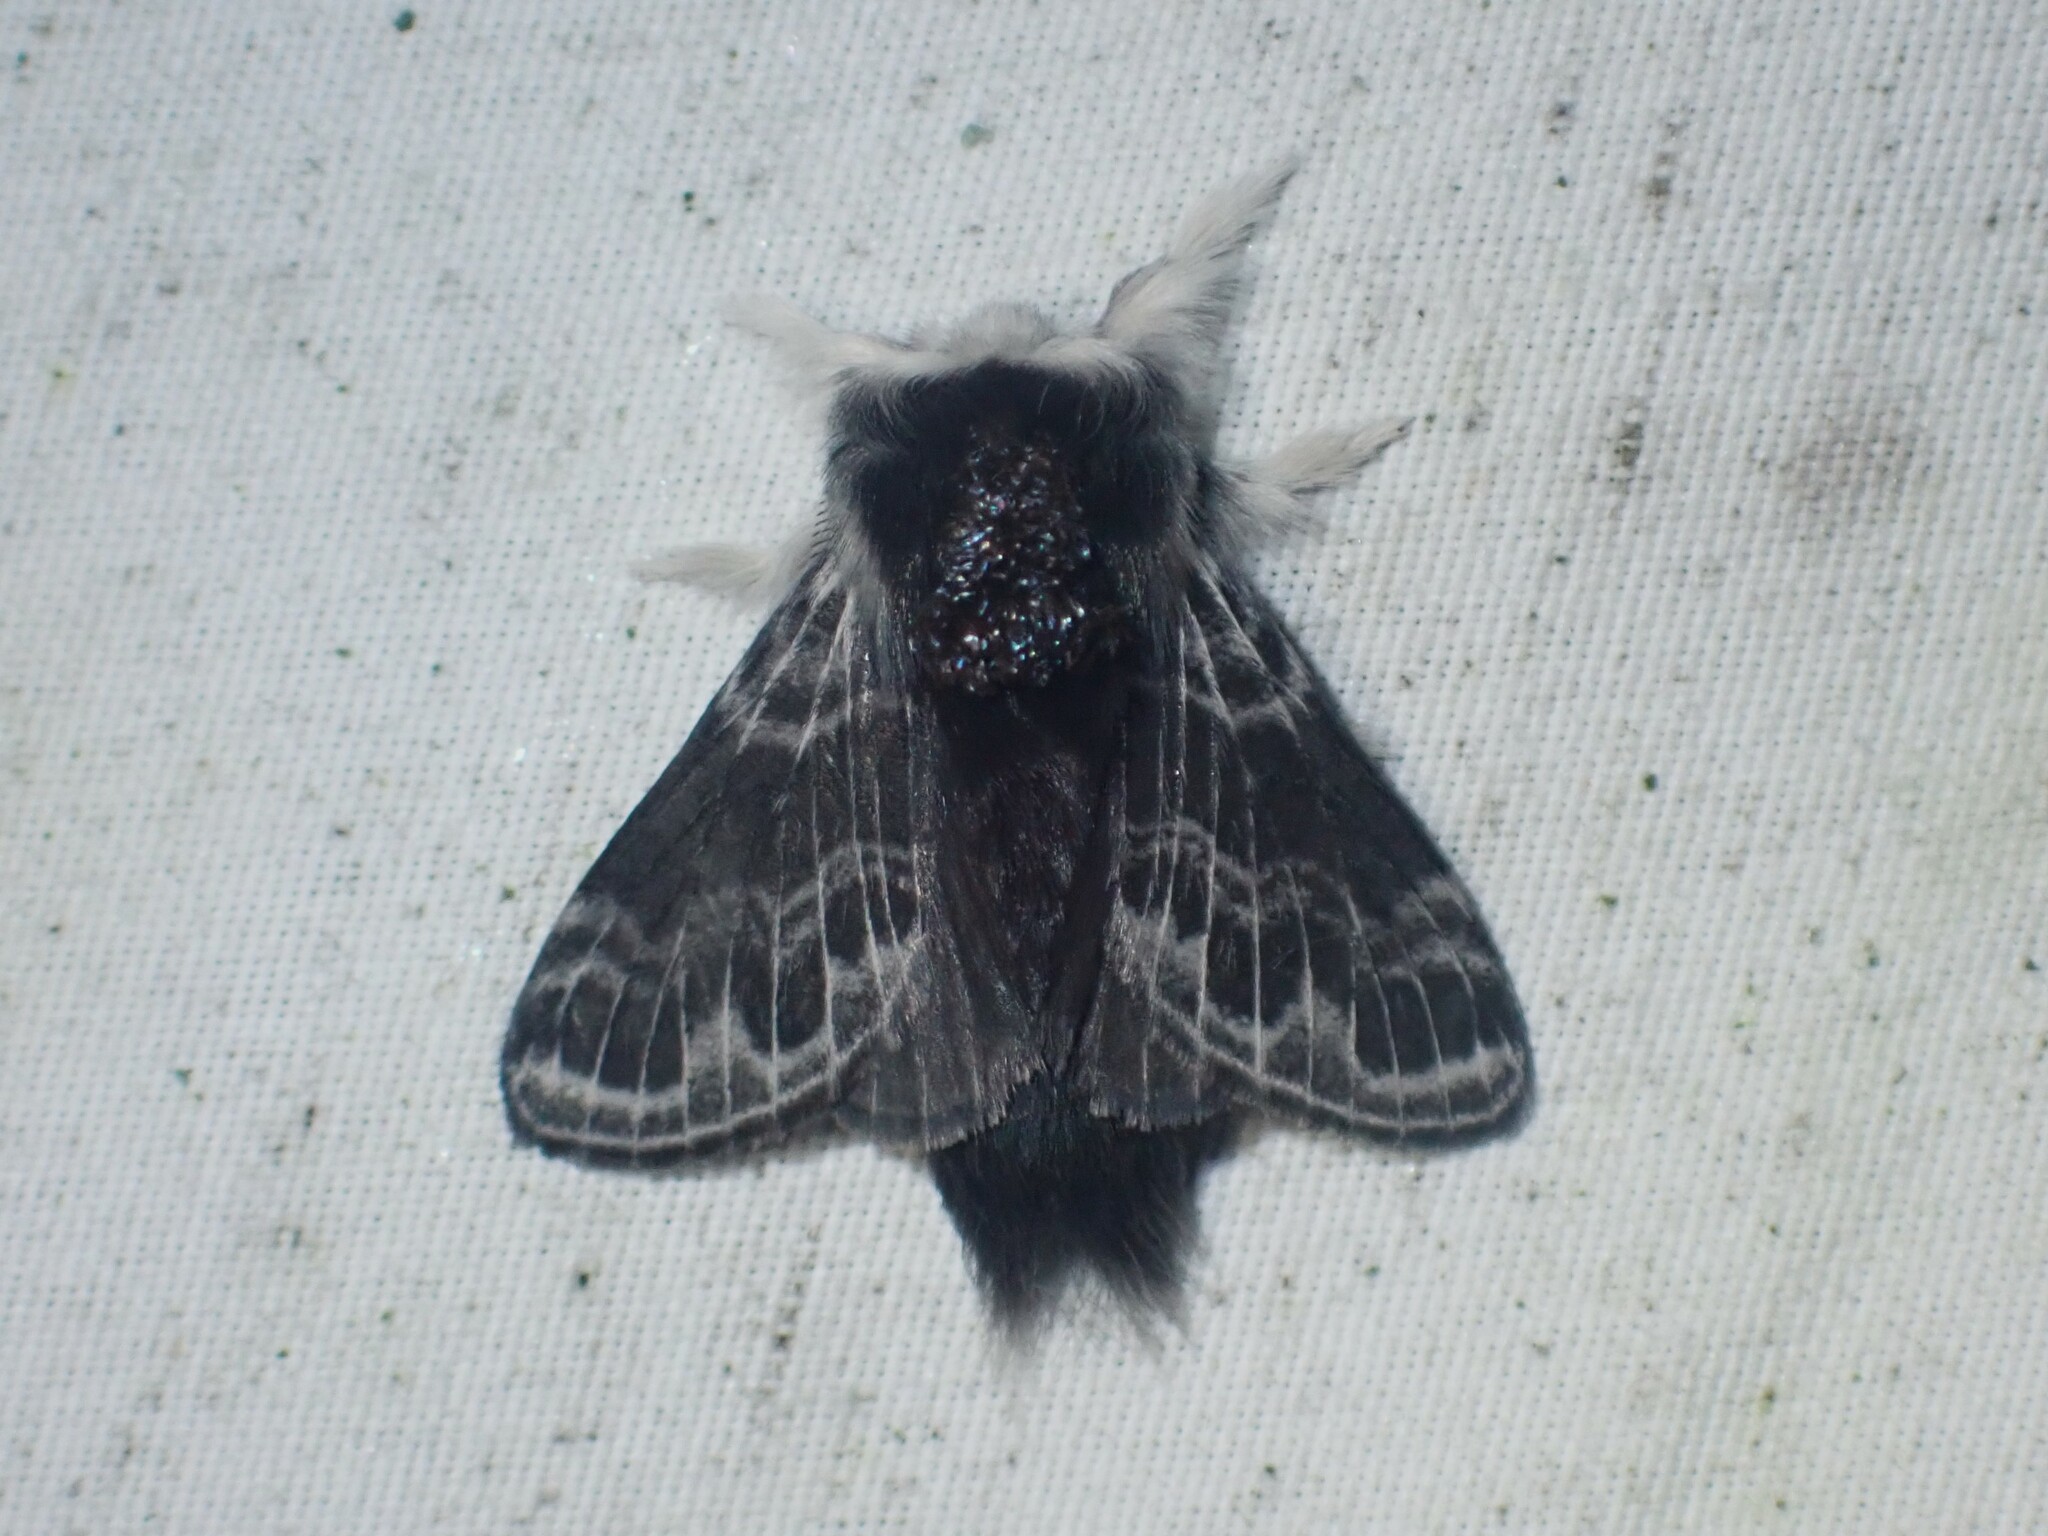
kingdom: Animalia
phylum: Arthropoda
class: Insecta
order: Lepidoptera
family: Lasiocampidae
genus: Tolype
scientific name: Tolype laricis
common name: Larch tolype moth
